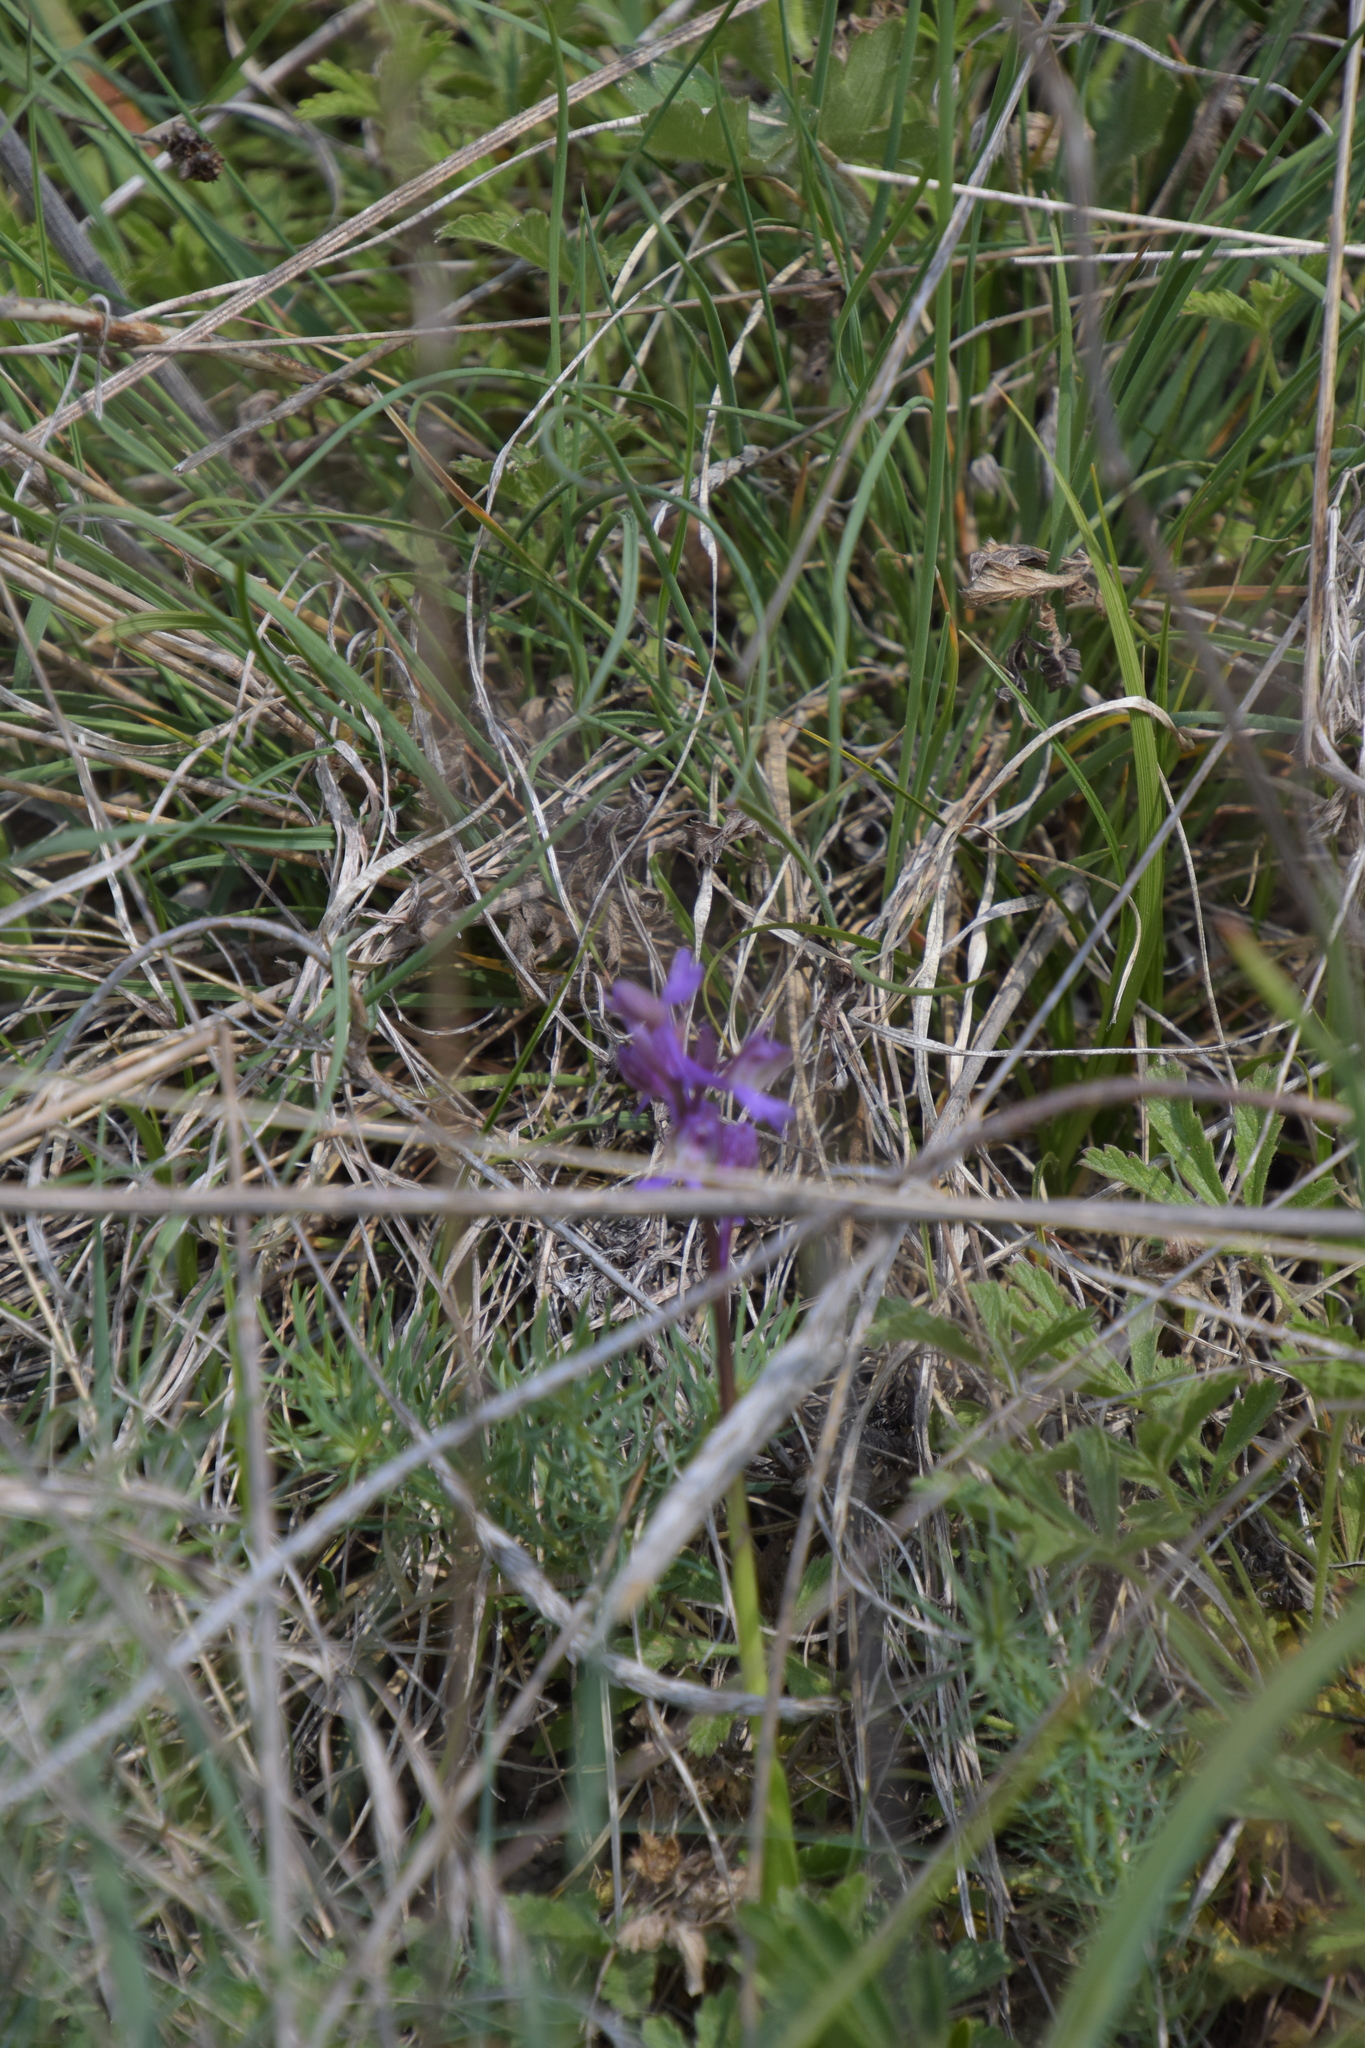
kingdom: Plantae
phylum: Tracheophyta
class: Liliopsida
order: Asparagales
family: Orchidaceae
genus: Anacamptis
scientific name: Anacamptis morio
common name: Green-winged orchid
